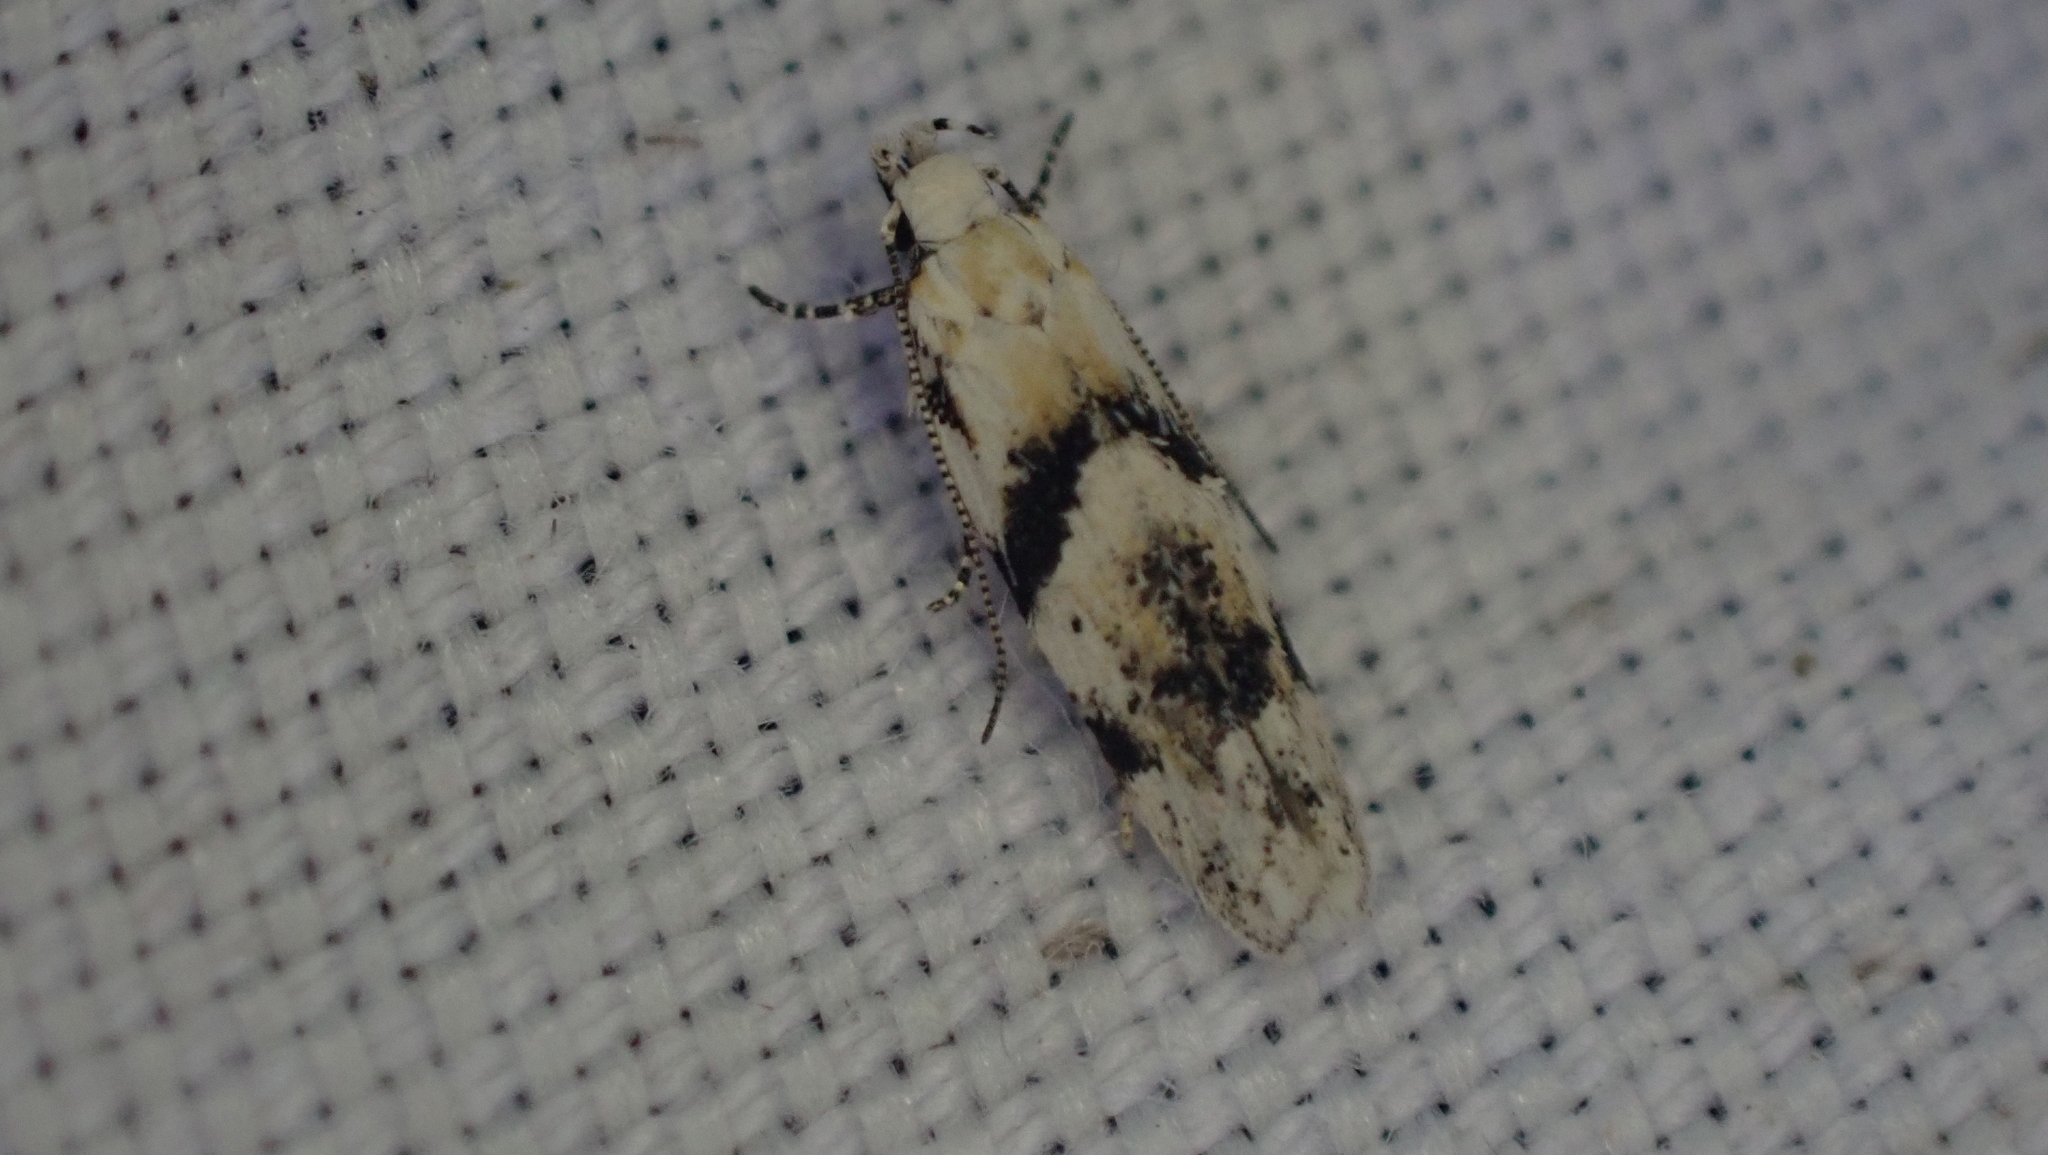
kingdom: Animalia
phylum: Arthropoda
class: Insecta
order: Lepidoptera
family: Gelechiidae
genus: Arogalea
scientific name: Arogalea cristifasciella
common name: White stripe-backed moth
